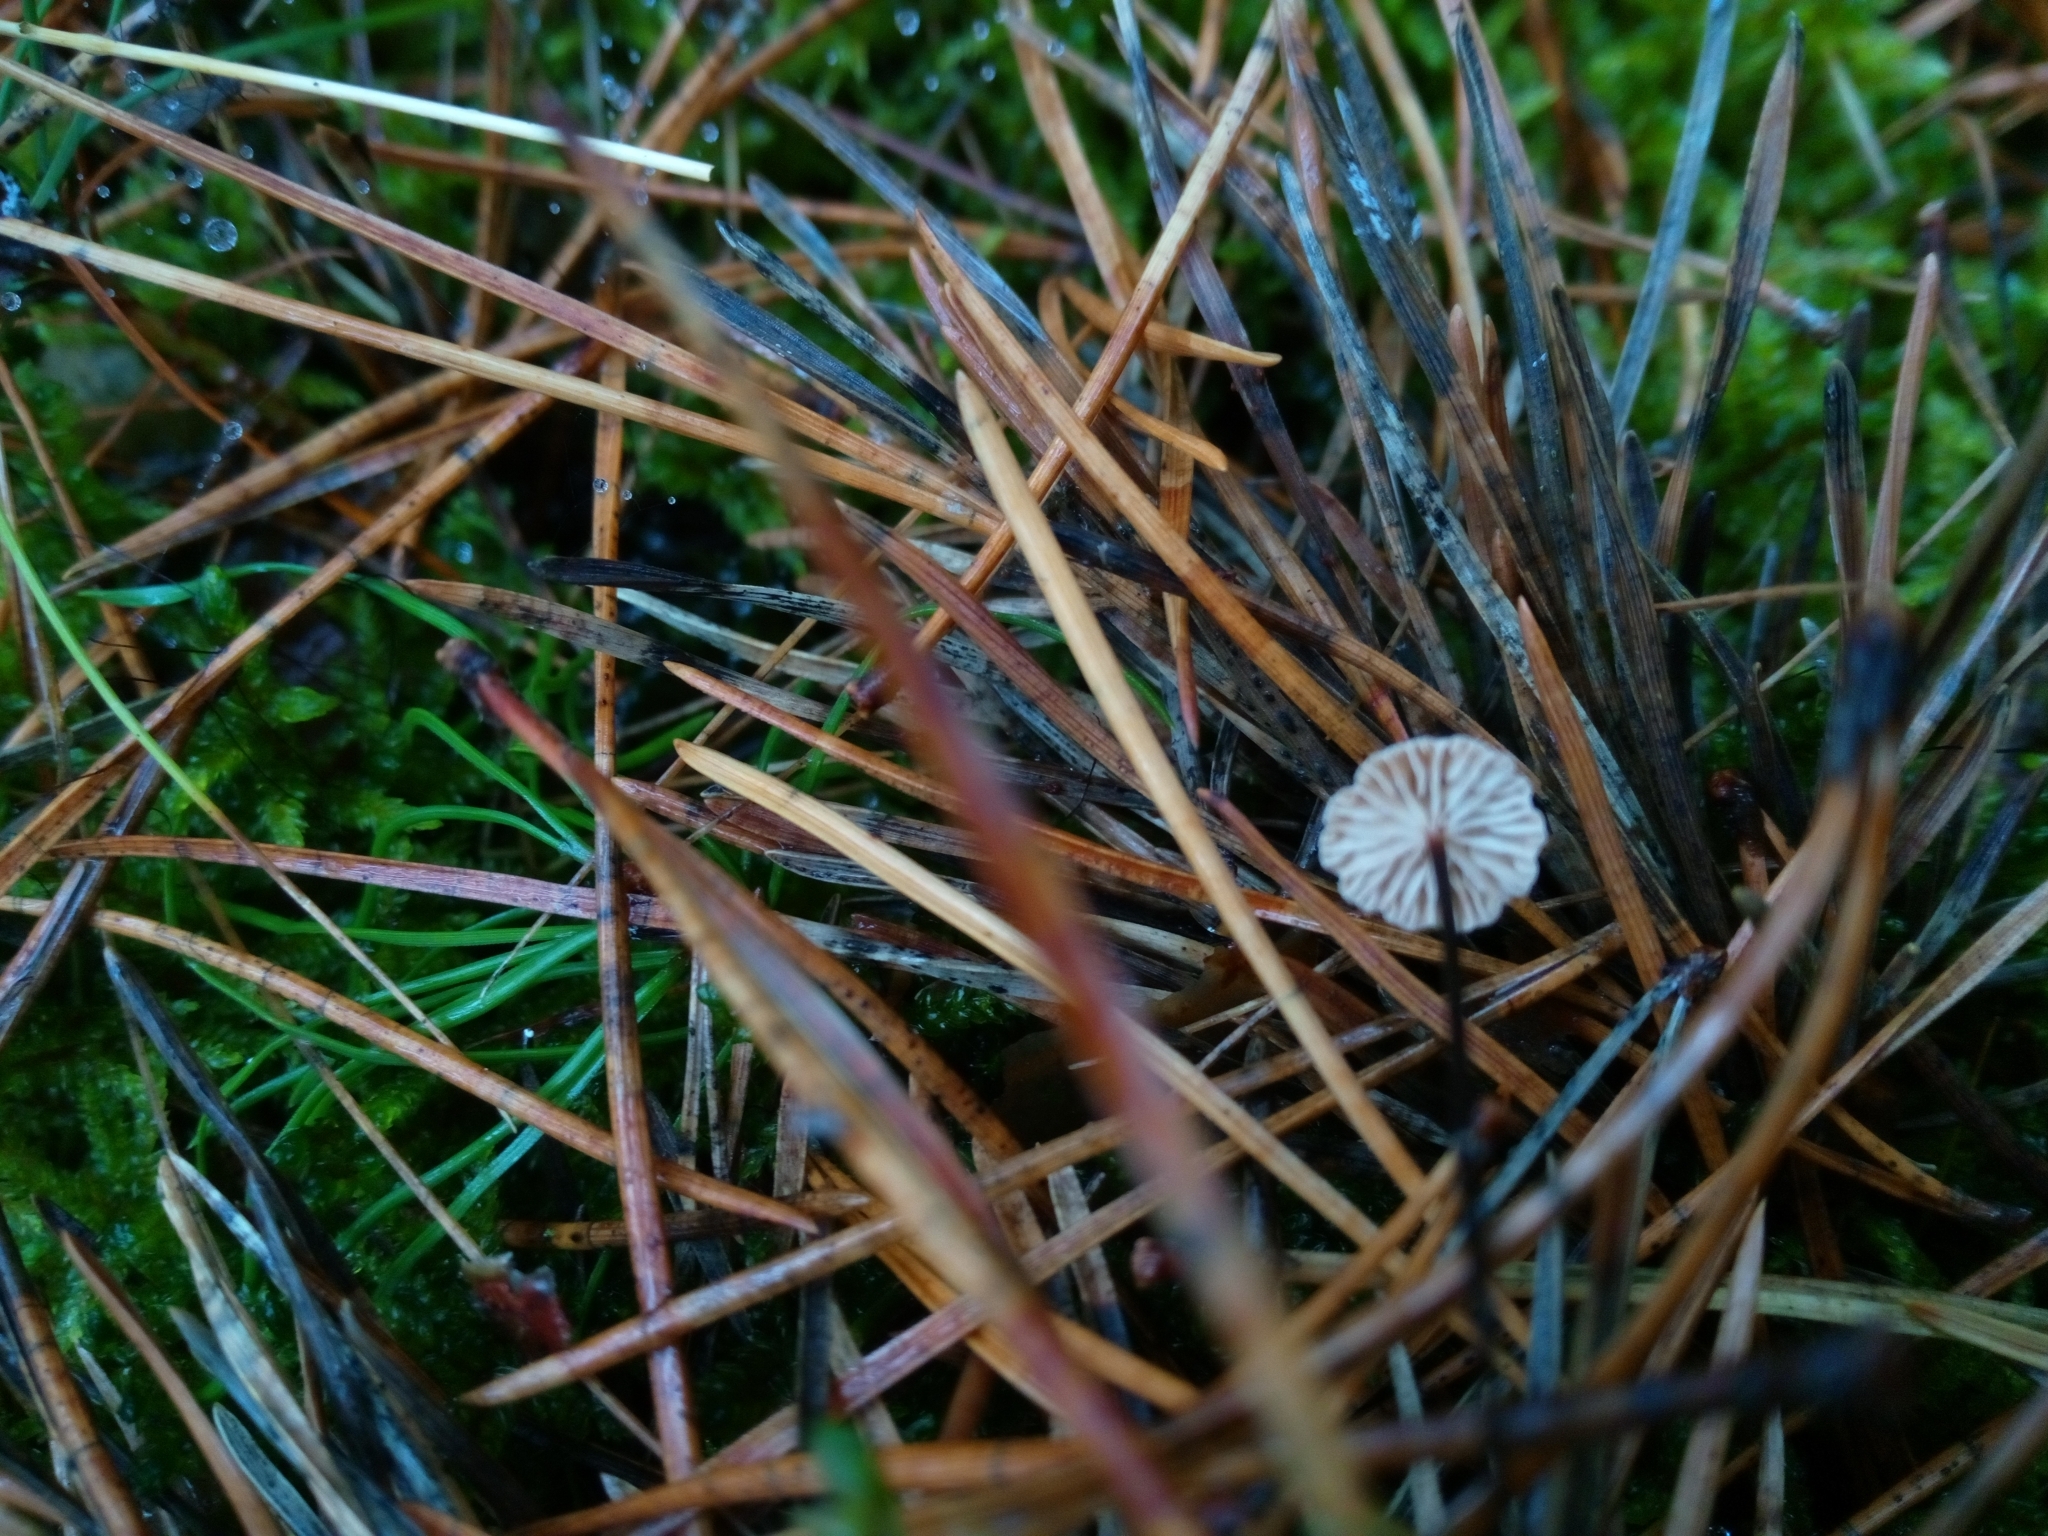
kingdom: Fungi
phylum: Basidiomycota
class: Agaricomycetes
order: Agaricales
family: Omphalotaceae
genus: Gymnopus
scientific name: Gymnopus androsaceus
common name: Horse-hair fungus
